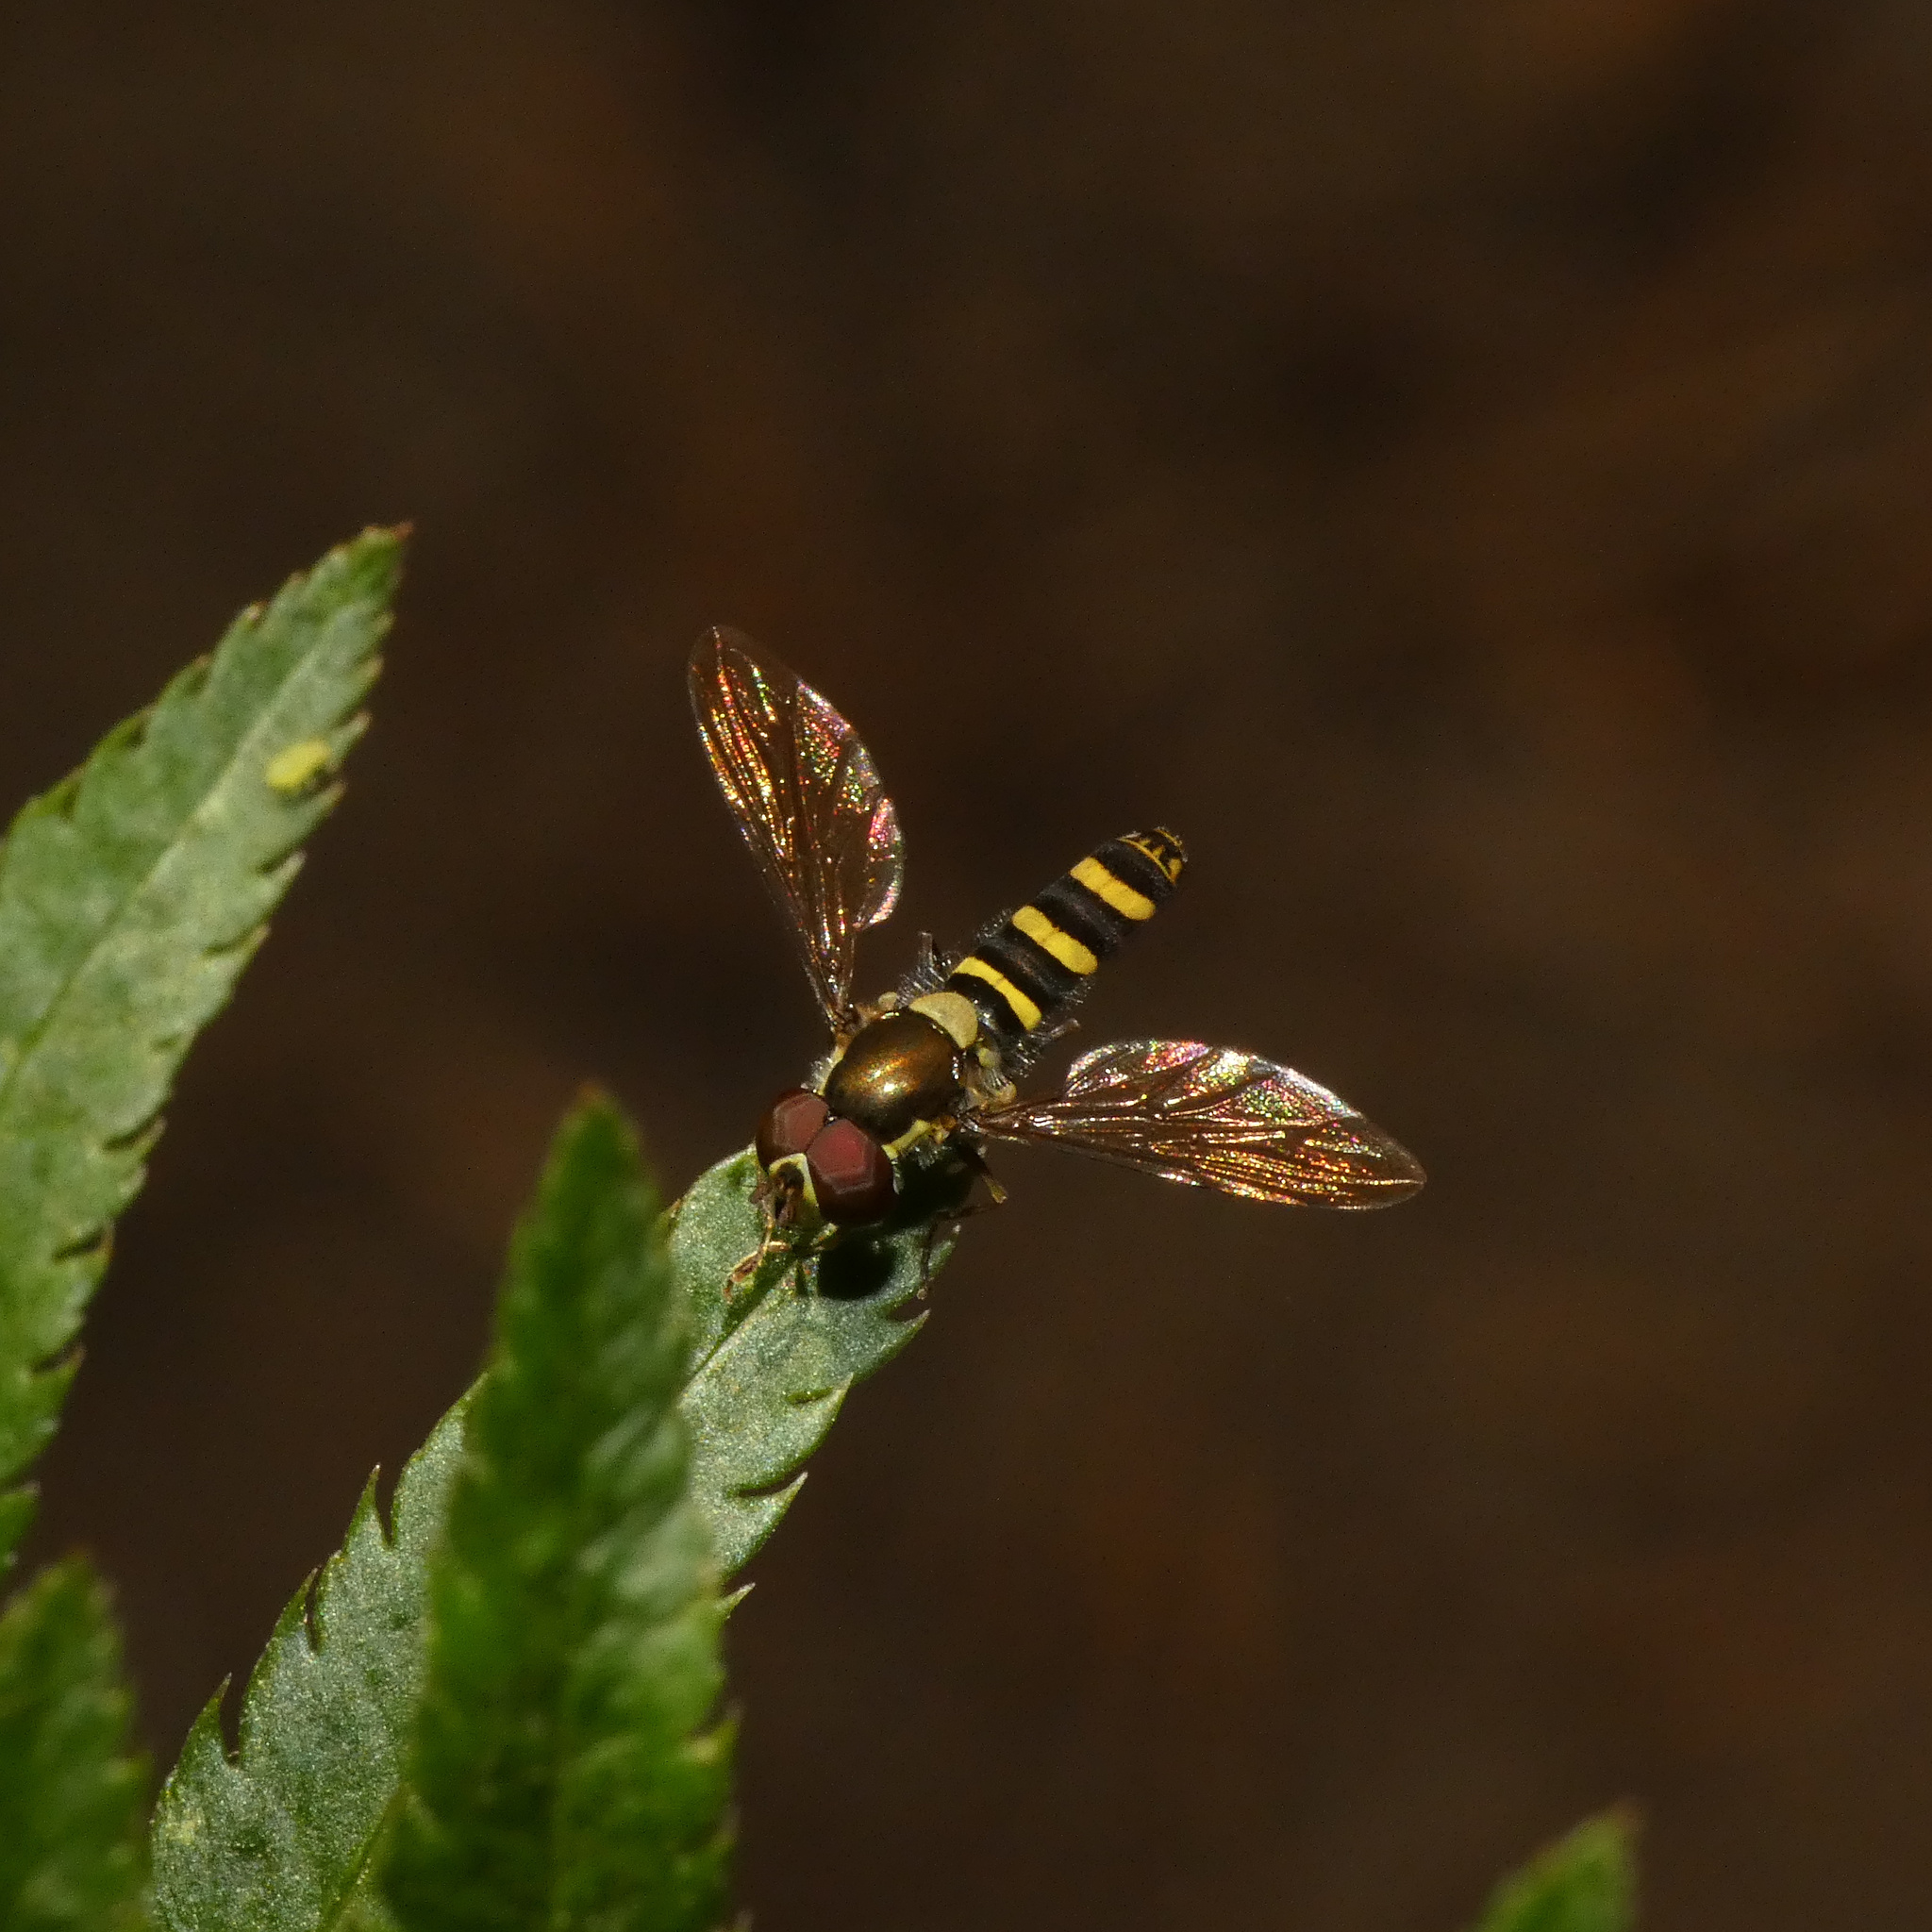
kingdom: Animalia
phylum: Arthropoda
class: Insecta
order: Diptera
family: Syrphidae
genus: Fazia
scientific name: Fazia micrura
